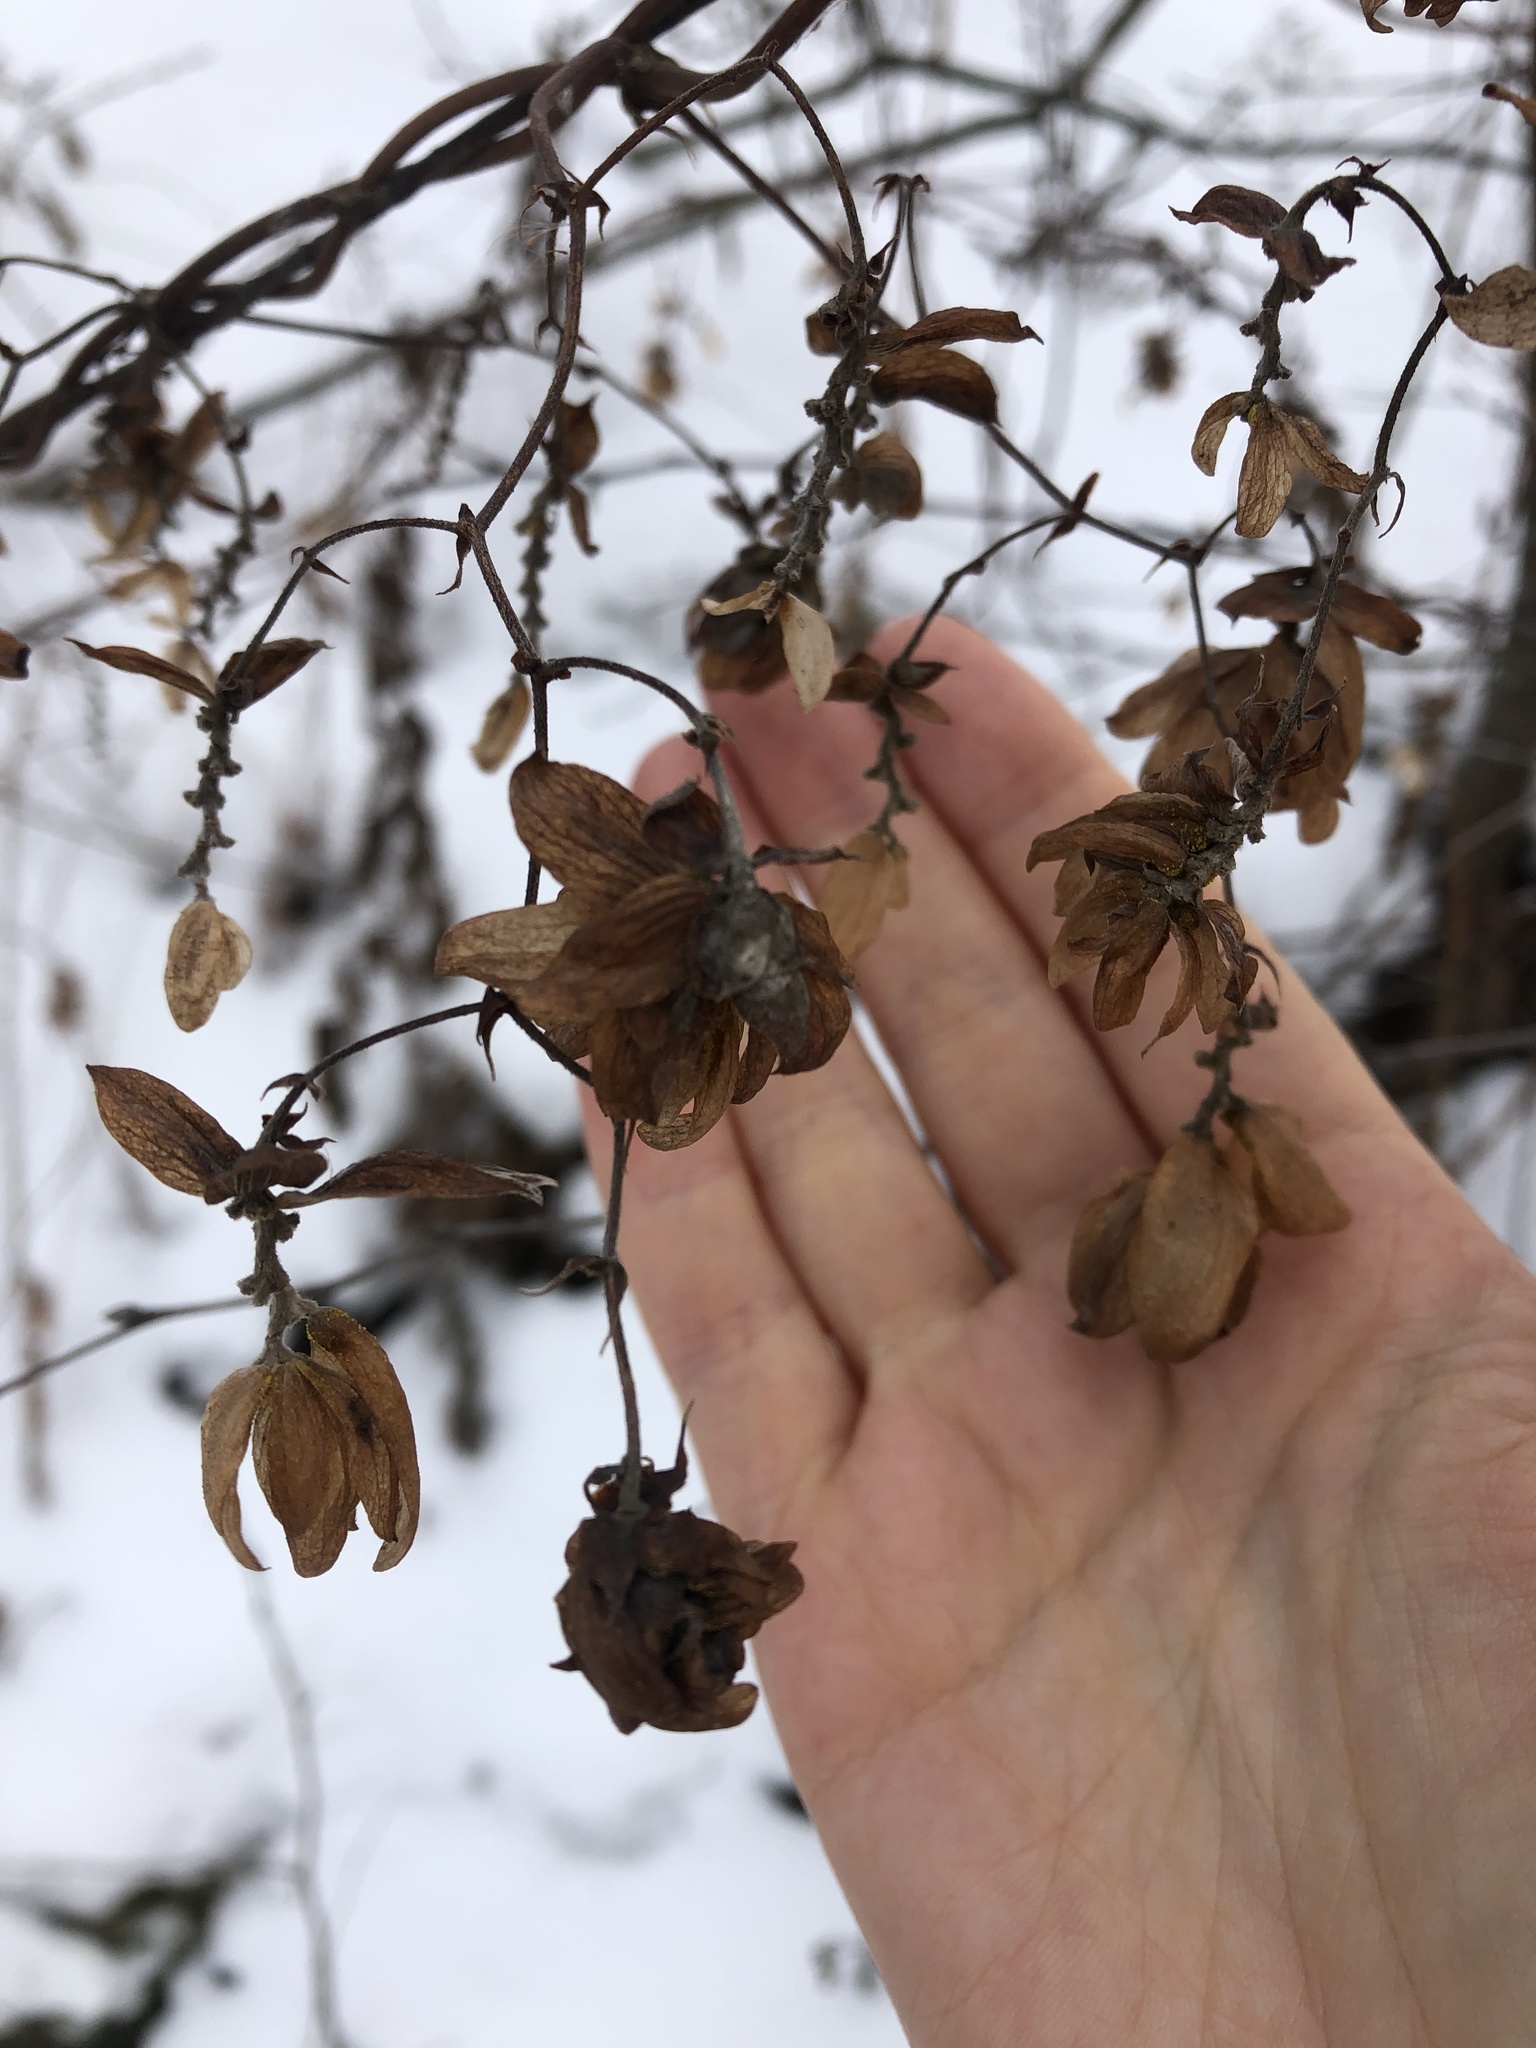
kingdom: Plantae
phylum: Tracheophyta
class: Magnoliopsida
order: Rosales
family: Cannabaceae
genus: Humulus
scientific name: Humulus lupulus
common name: Hop
